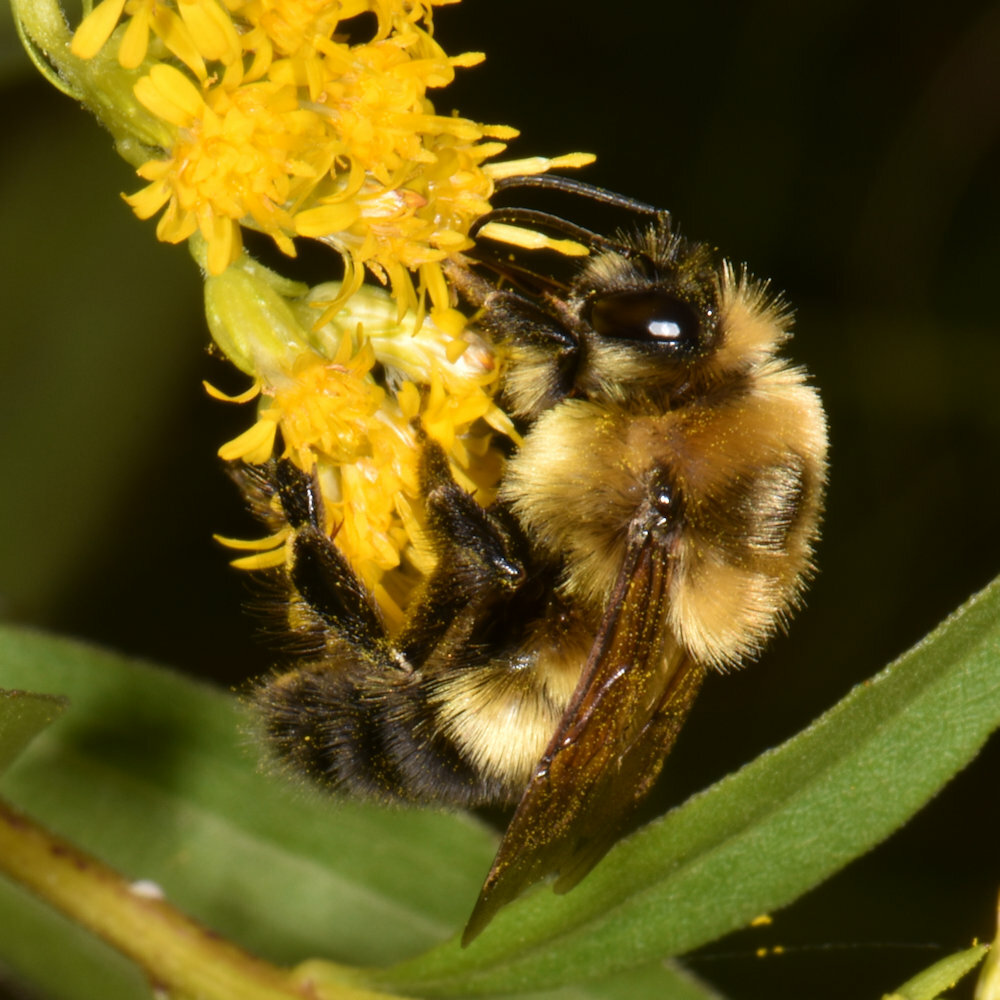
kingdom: Animalia
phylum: Arthropoda
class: Insecta
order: Hymenoptera
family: Apidae
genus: Bombus
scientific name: Bombus rufocinctus
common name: Red-belted bumble bee
